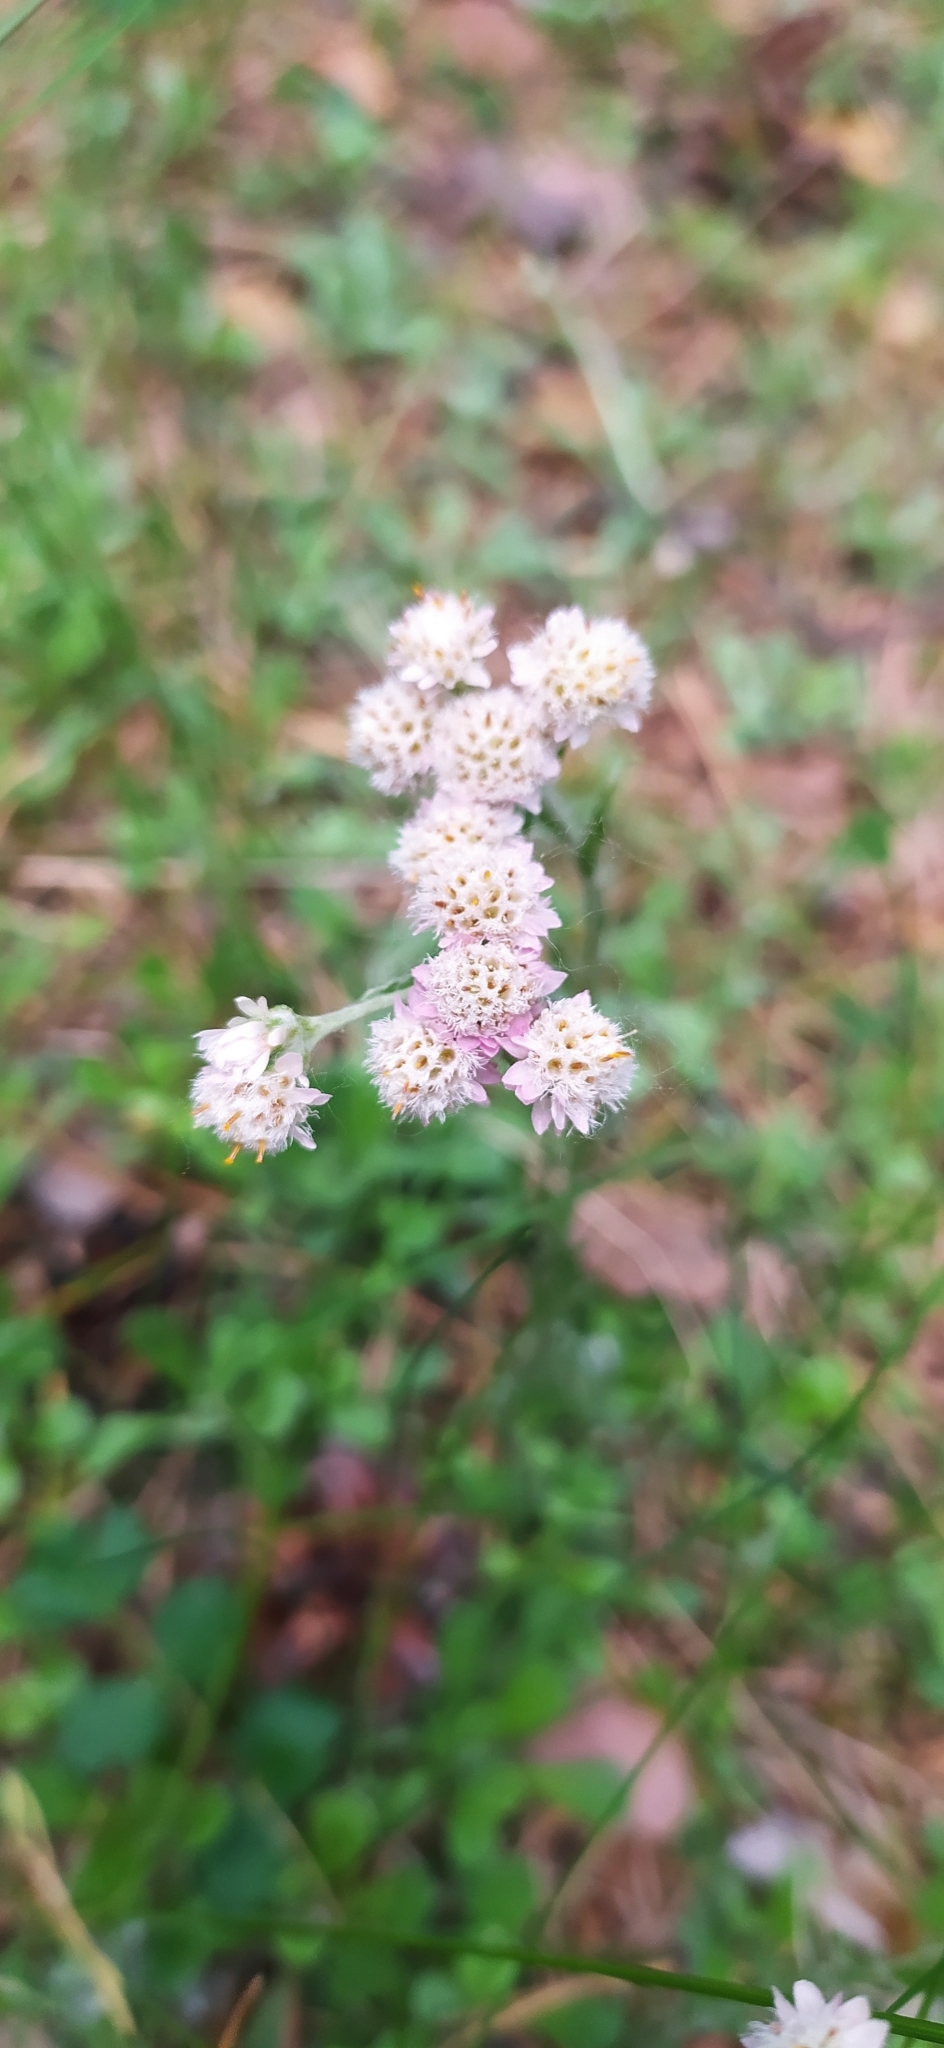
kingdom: Plantae
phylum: Tracheophyta
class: Magnoliopsida
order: Asterales
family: Asteraceae
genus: Antennaria
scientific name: Antennaria dioica
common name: Mountain everlasting
